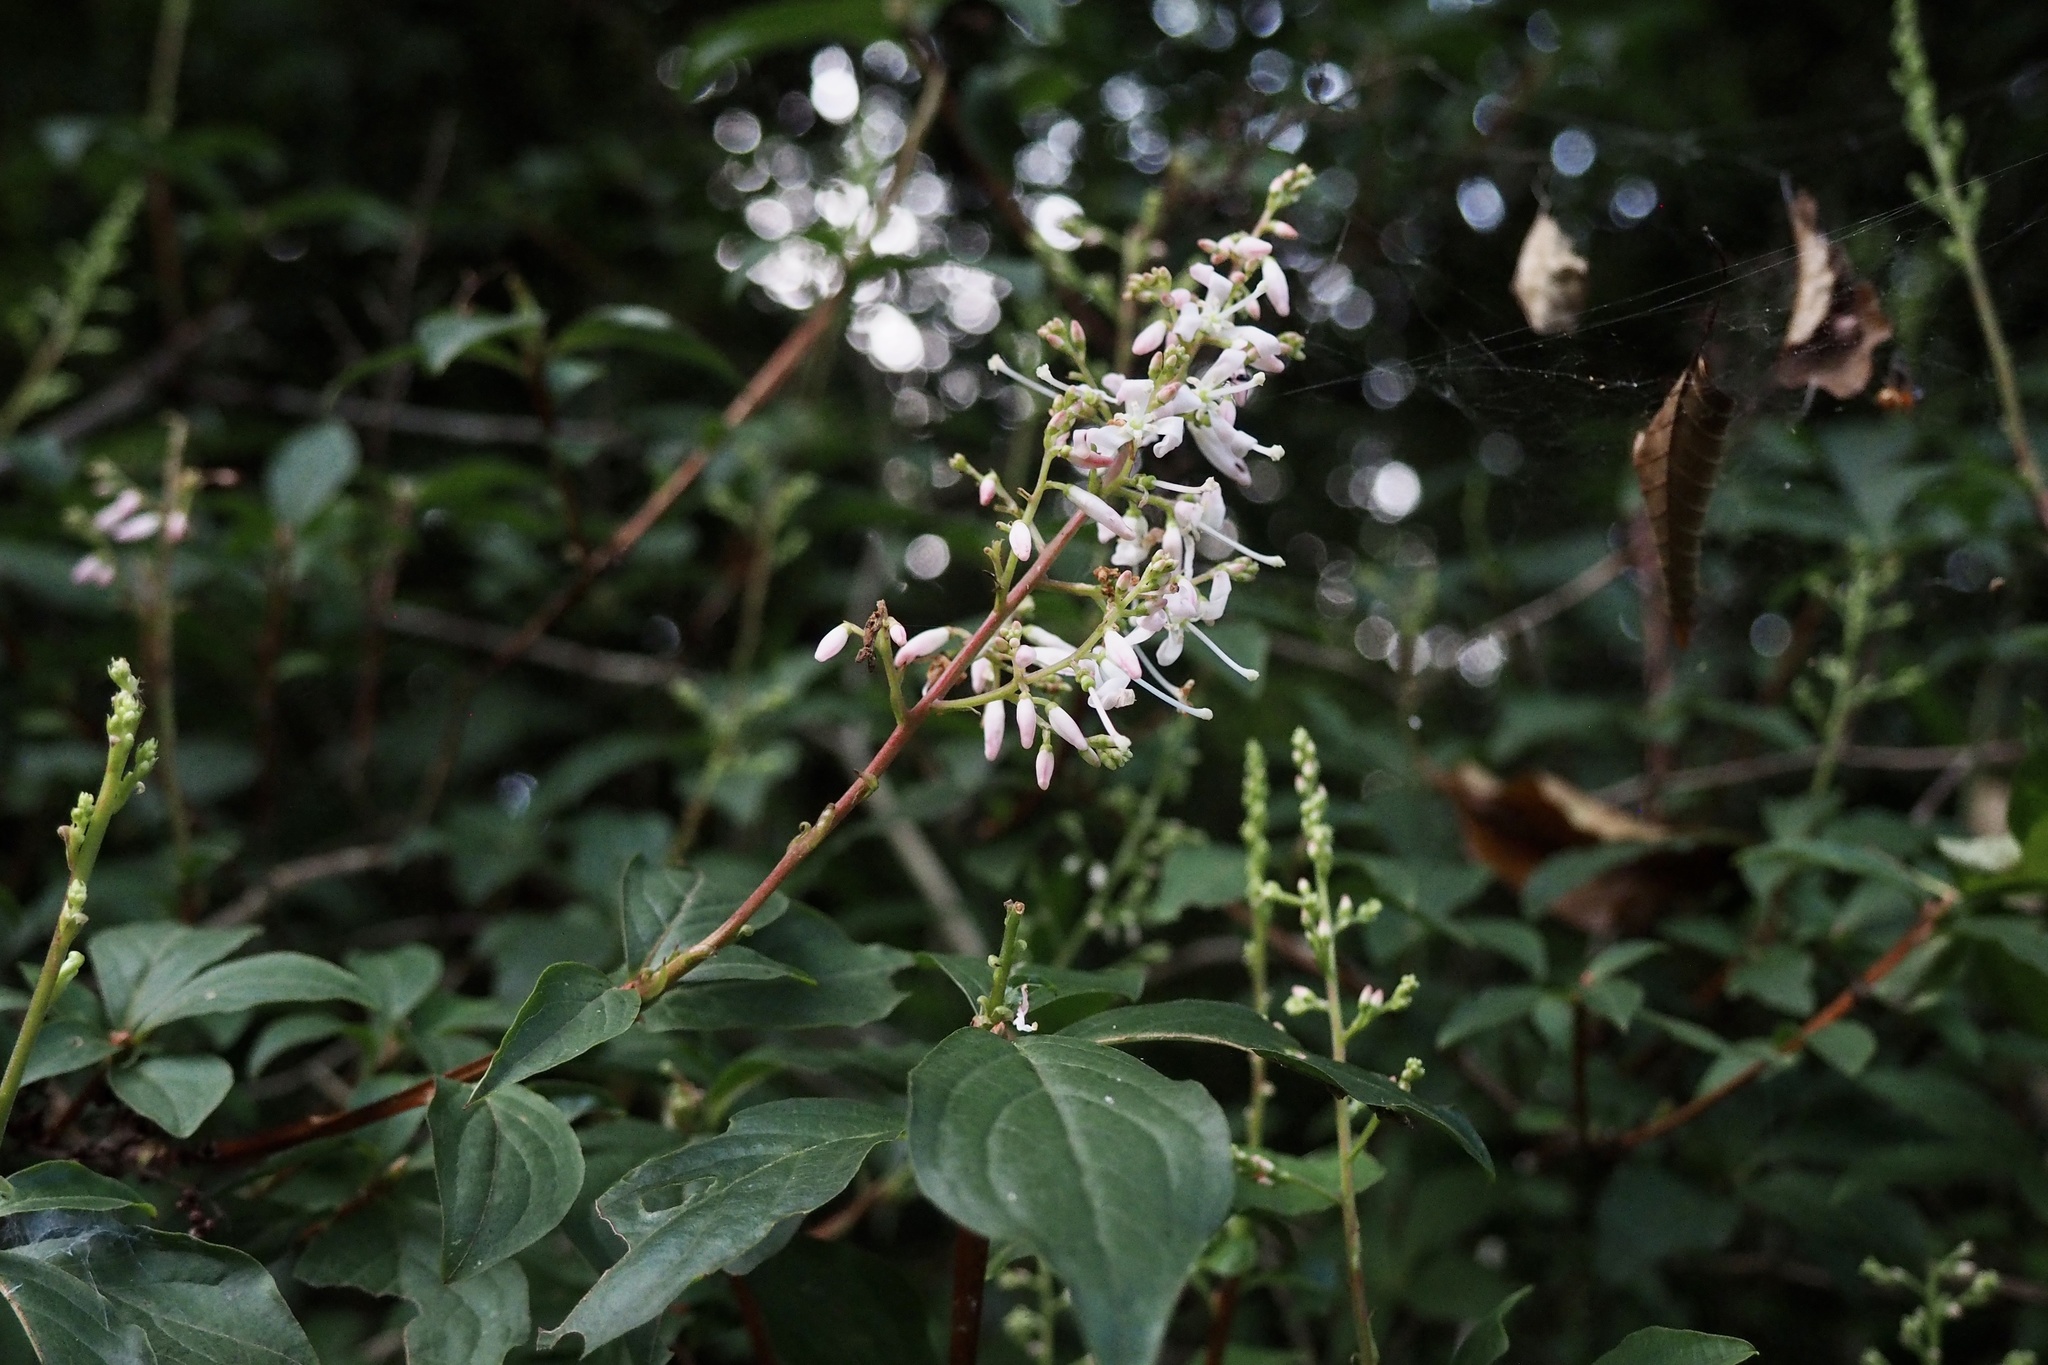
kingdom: Plantae
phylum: Tracheophyta
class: Magnoliopsida
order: Ericales
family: Ericaceae
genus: Elliottia
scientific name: Elliottia paniculata
